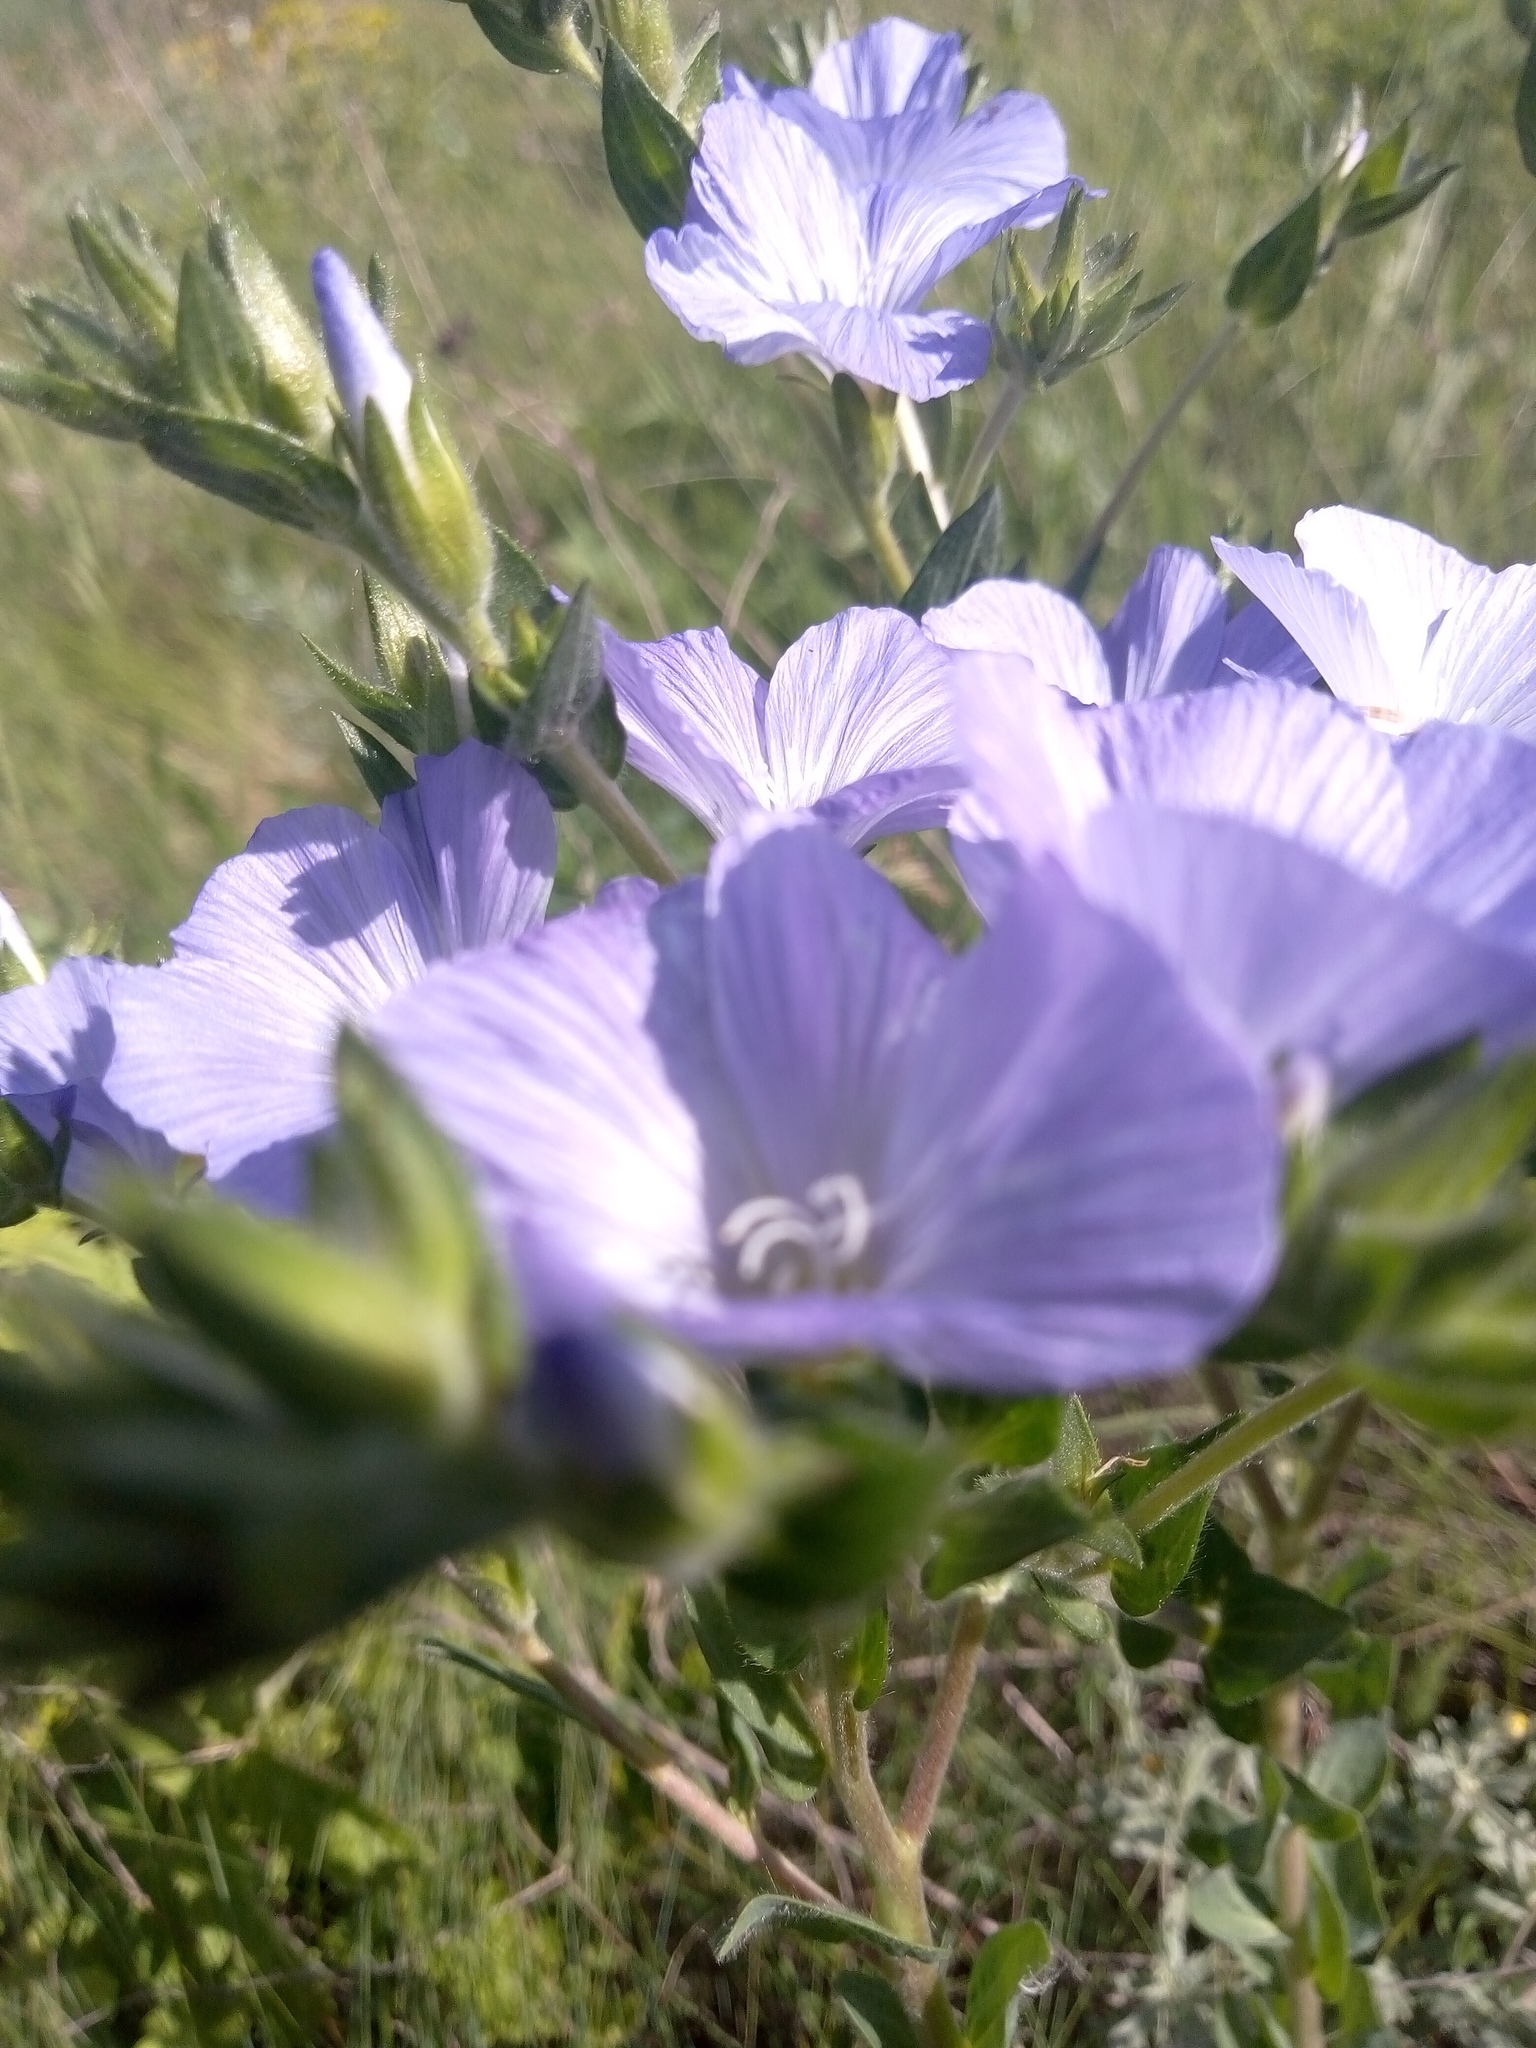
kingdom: Plantae
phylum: Tracheophyta
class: Magnoliopsida
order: Malpighiales
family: Linaceae
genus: Linum
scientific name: Linum hirsutum
